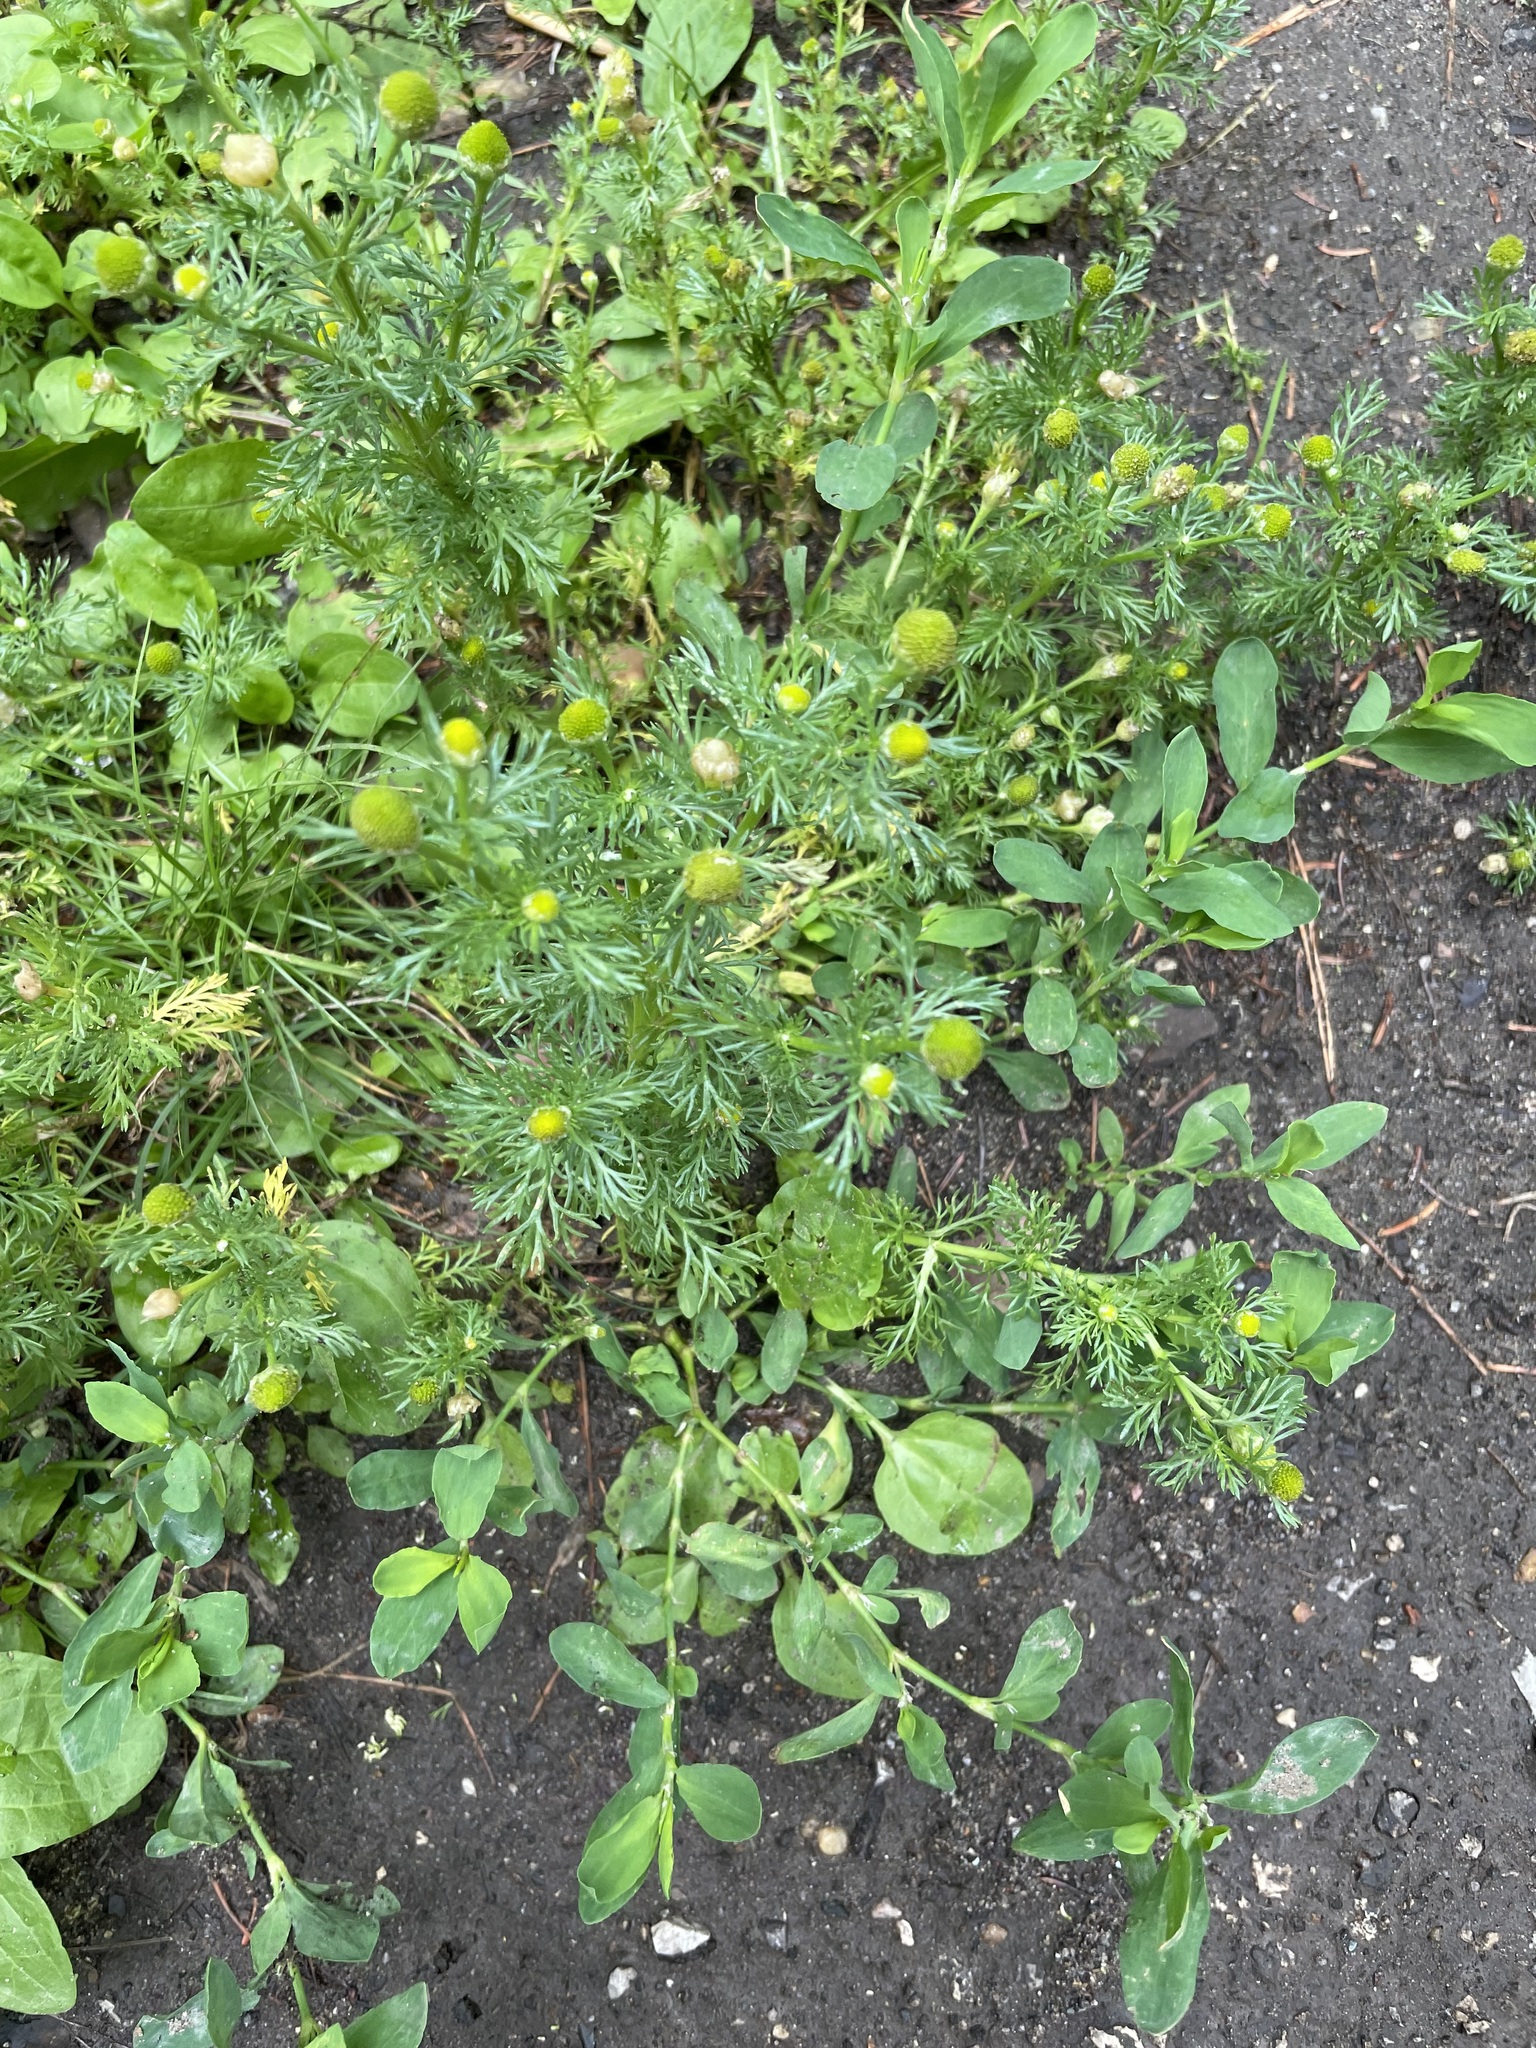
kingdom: Plantae
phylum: Tracheophyta
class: Magnoliopsida
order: Asterales
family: Asteraceae
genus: Matricaria
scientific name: Matricaria discoidea
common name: Disc mayweed
